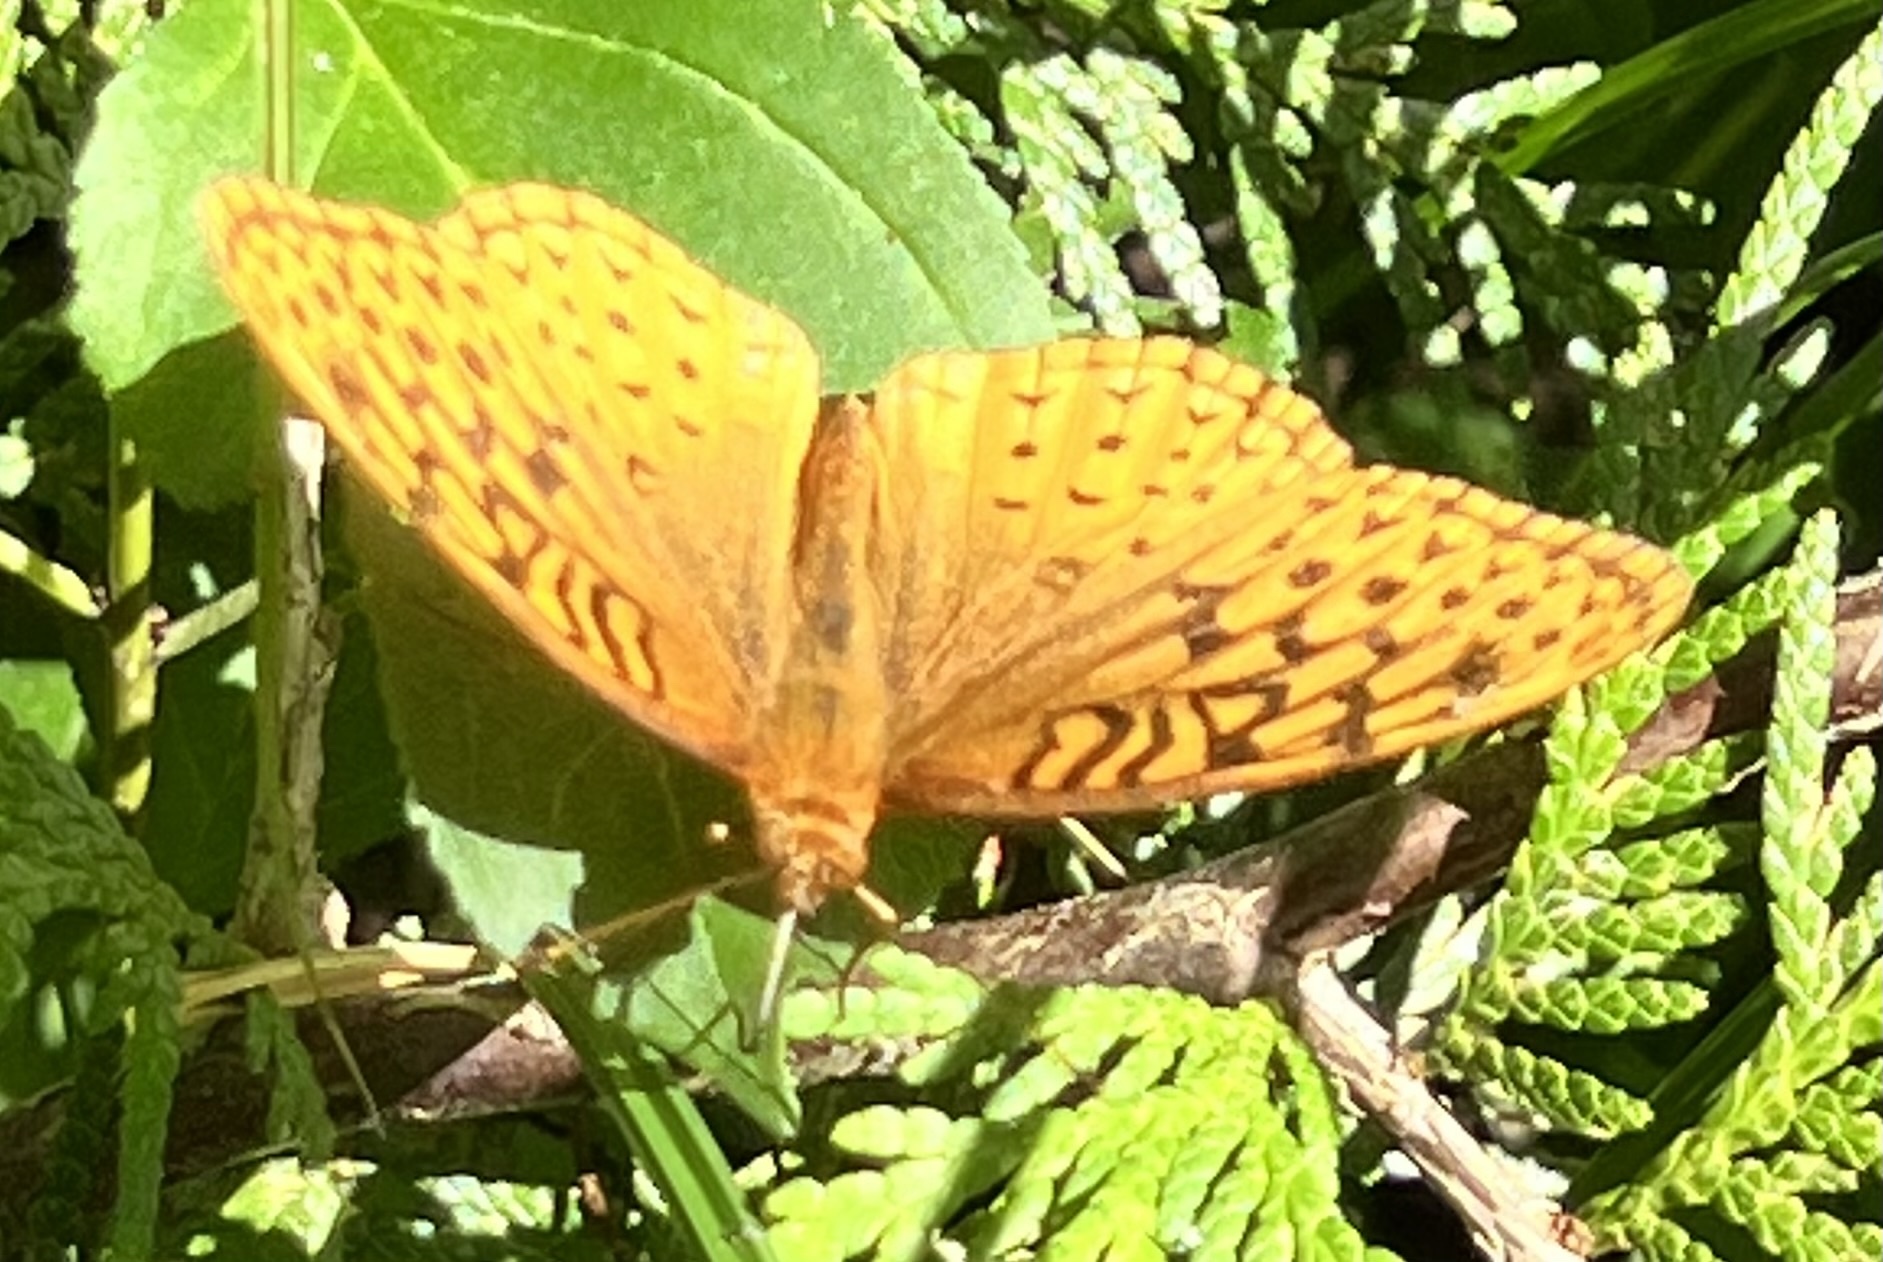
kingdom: Animalia
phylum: Arthropoda
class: Insecta
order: Lepidoptera
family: Nymphalidae
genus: Speyeria
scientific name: Speyeria cybele
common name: Great spangled fritillary
